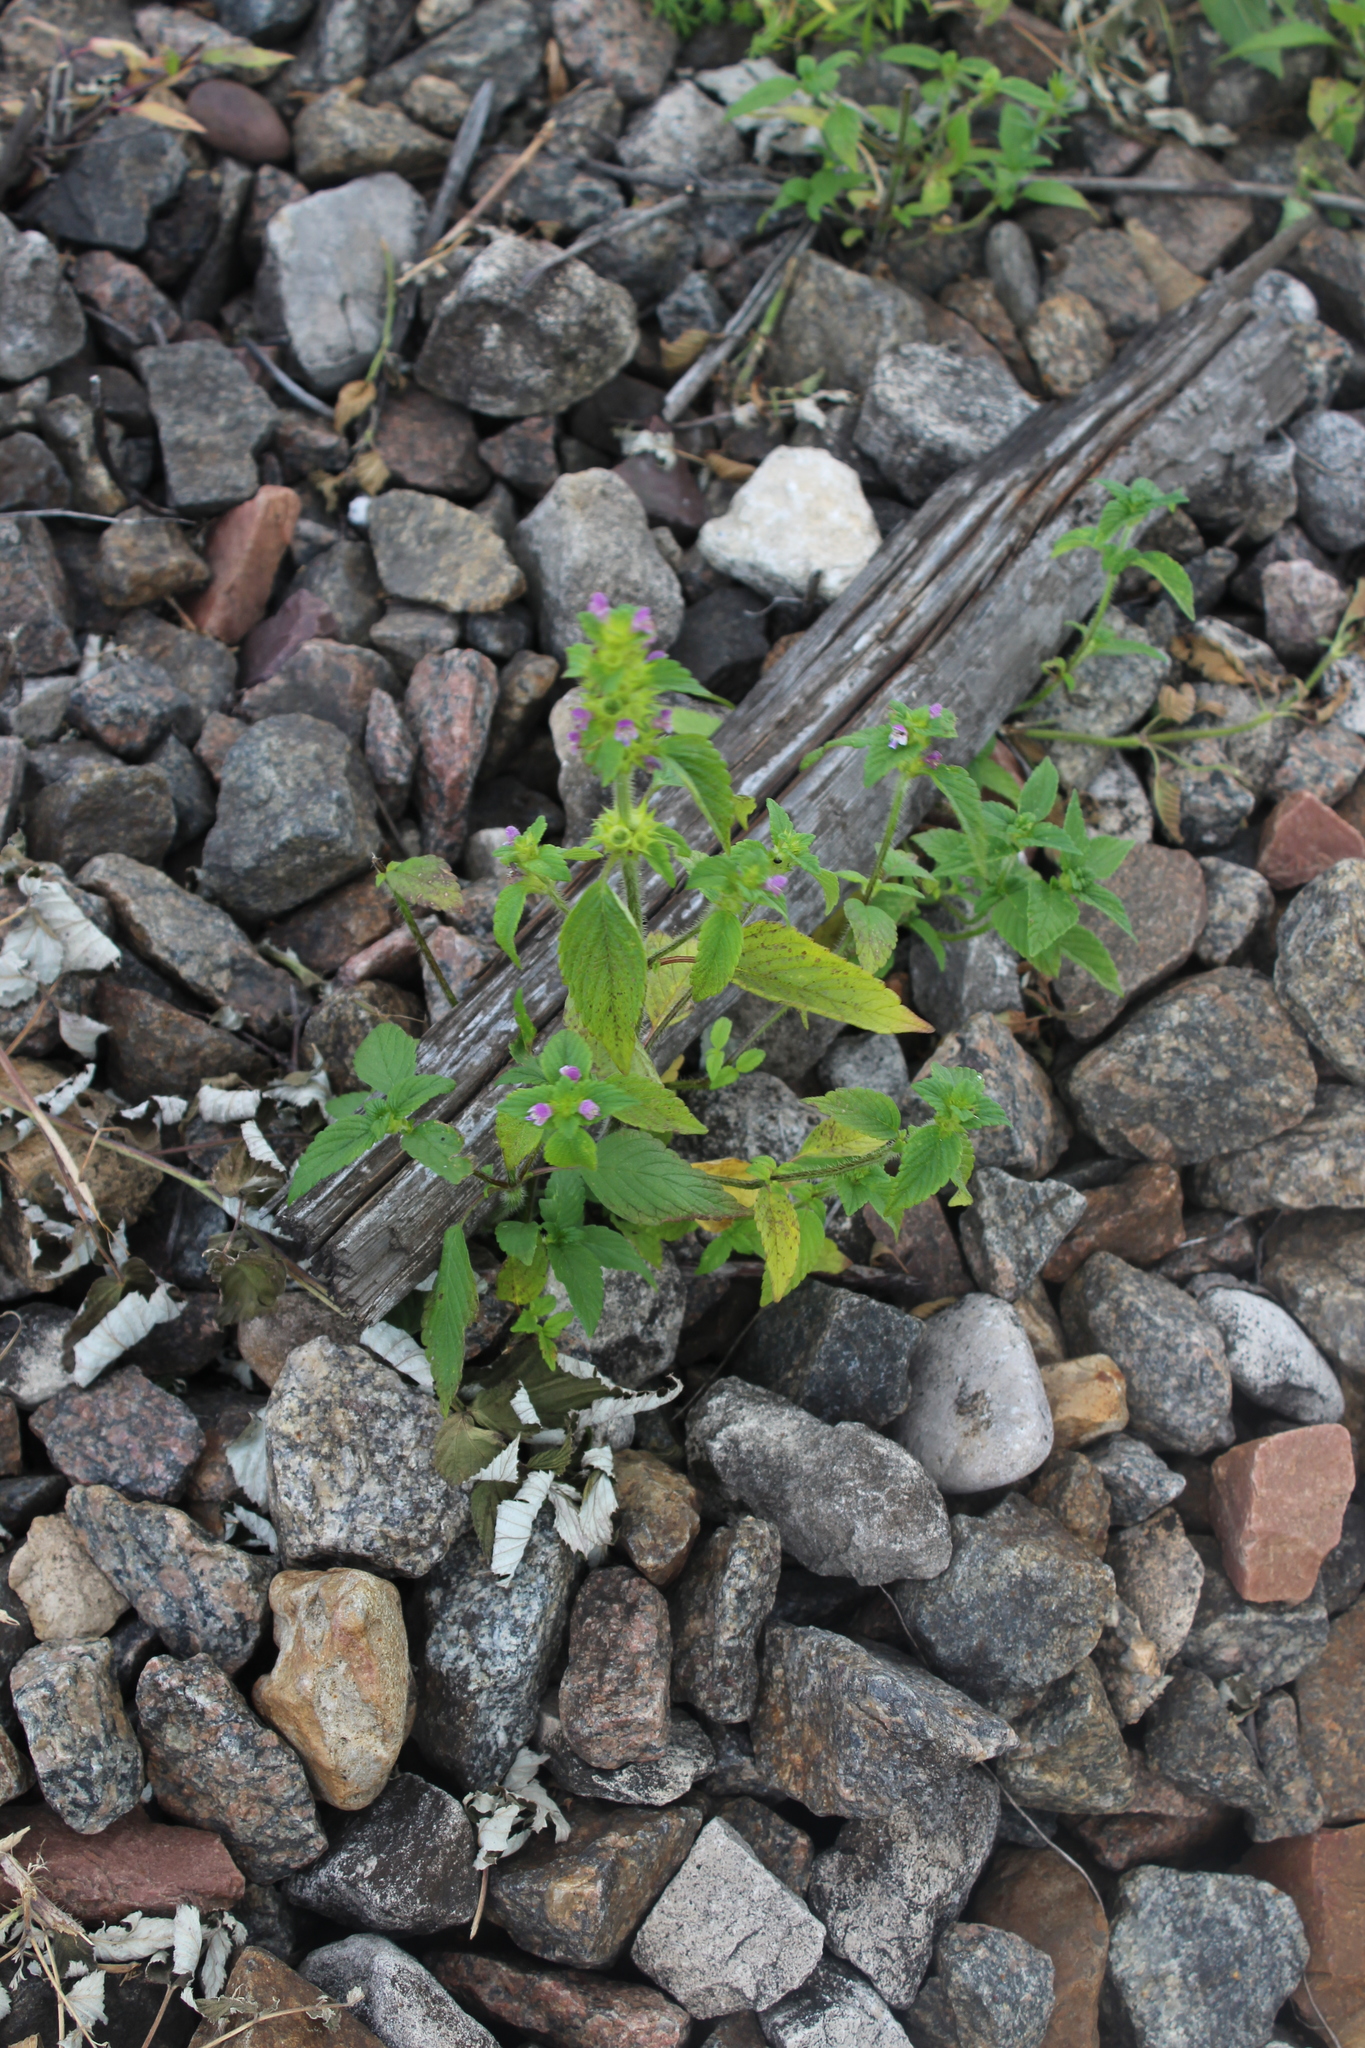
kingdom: Plantae
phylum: Tracheophyta
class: Magnoliopsida
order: Lamiales
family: Lamiaceae
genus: Galeopsis
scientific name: Galeopsis bifida
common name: Bifid hemp-nettle
